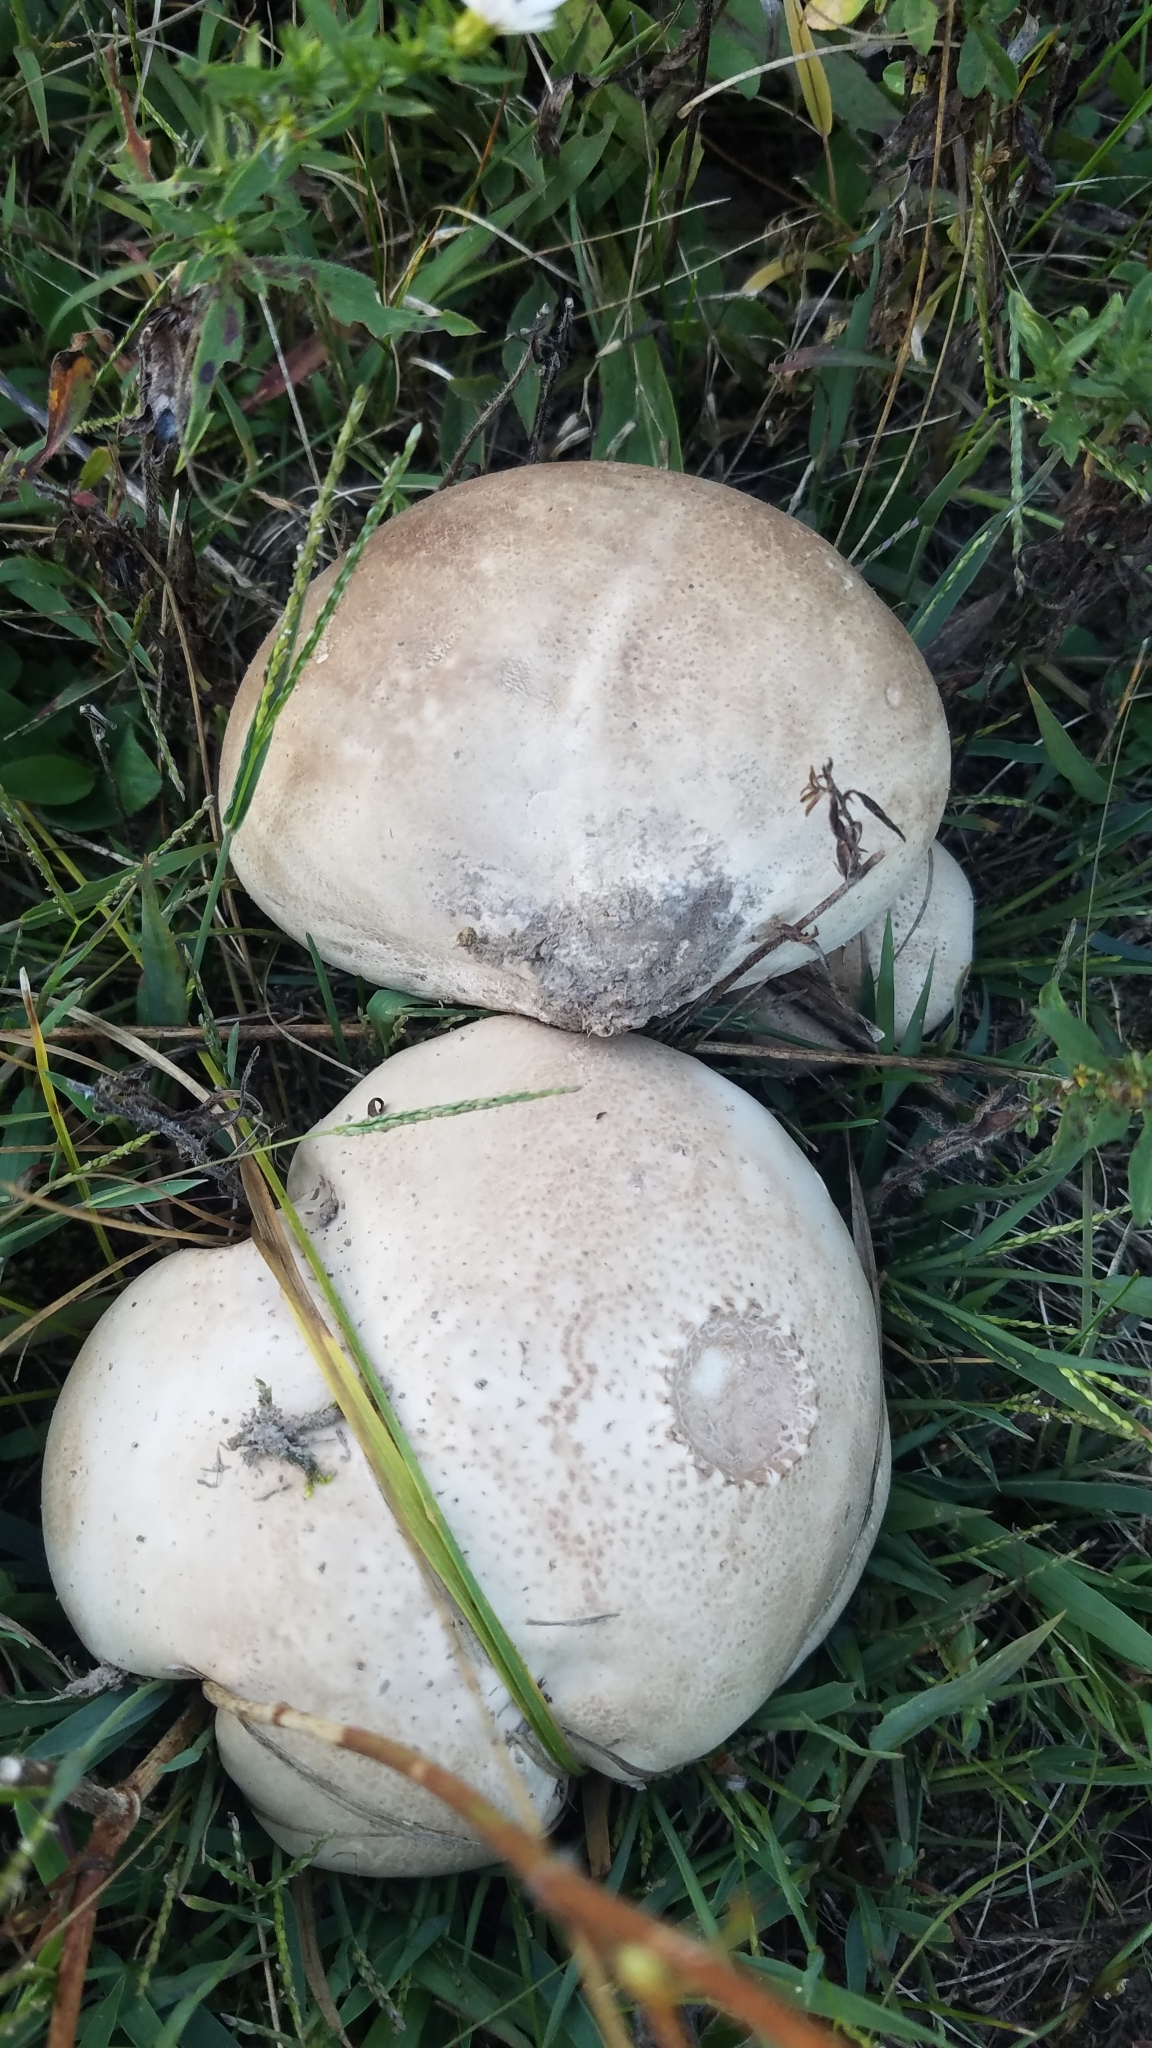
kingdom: Fungi
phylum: Basidiomycota
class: Agaricomycetes
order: Agaricales
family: Lycoperdaceae
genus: Calvatia
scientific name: Calvatia gigantea
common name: Giant puffball
